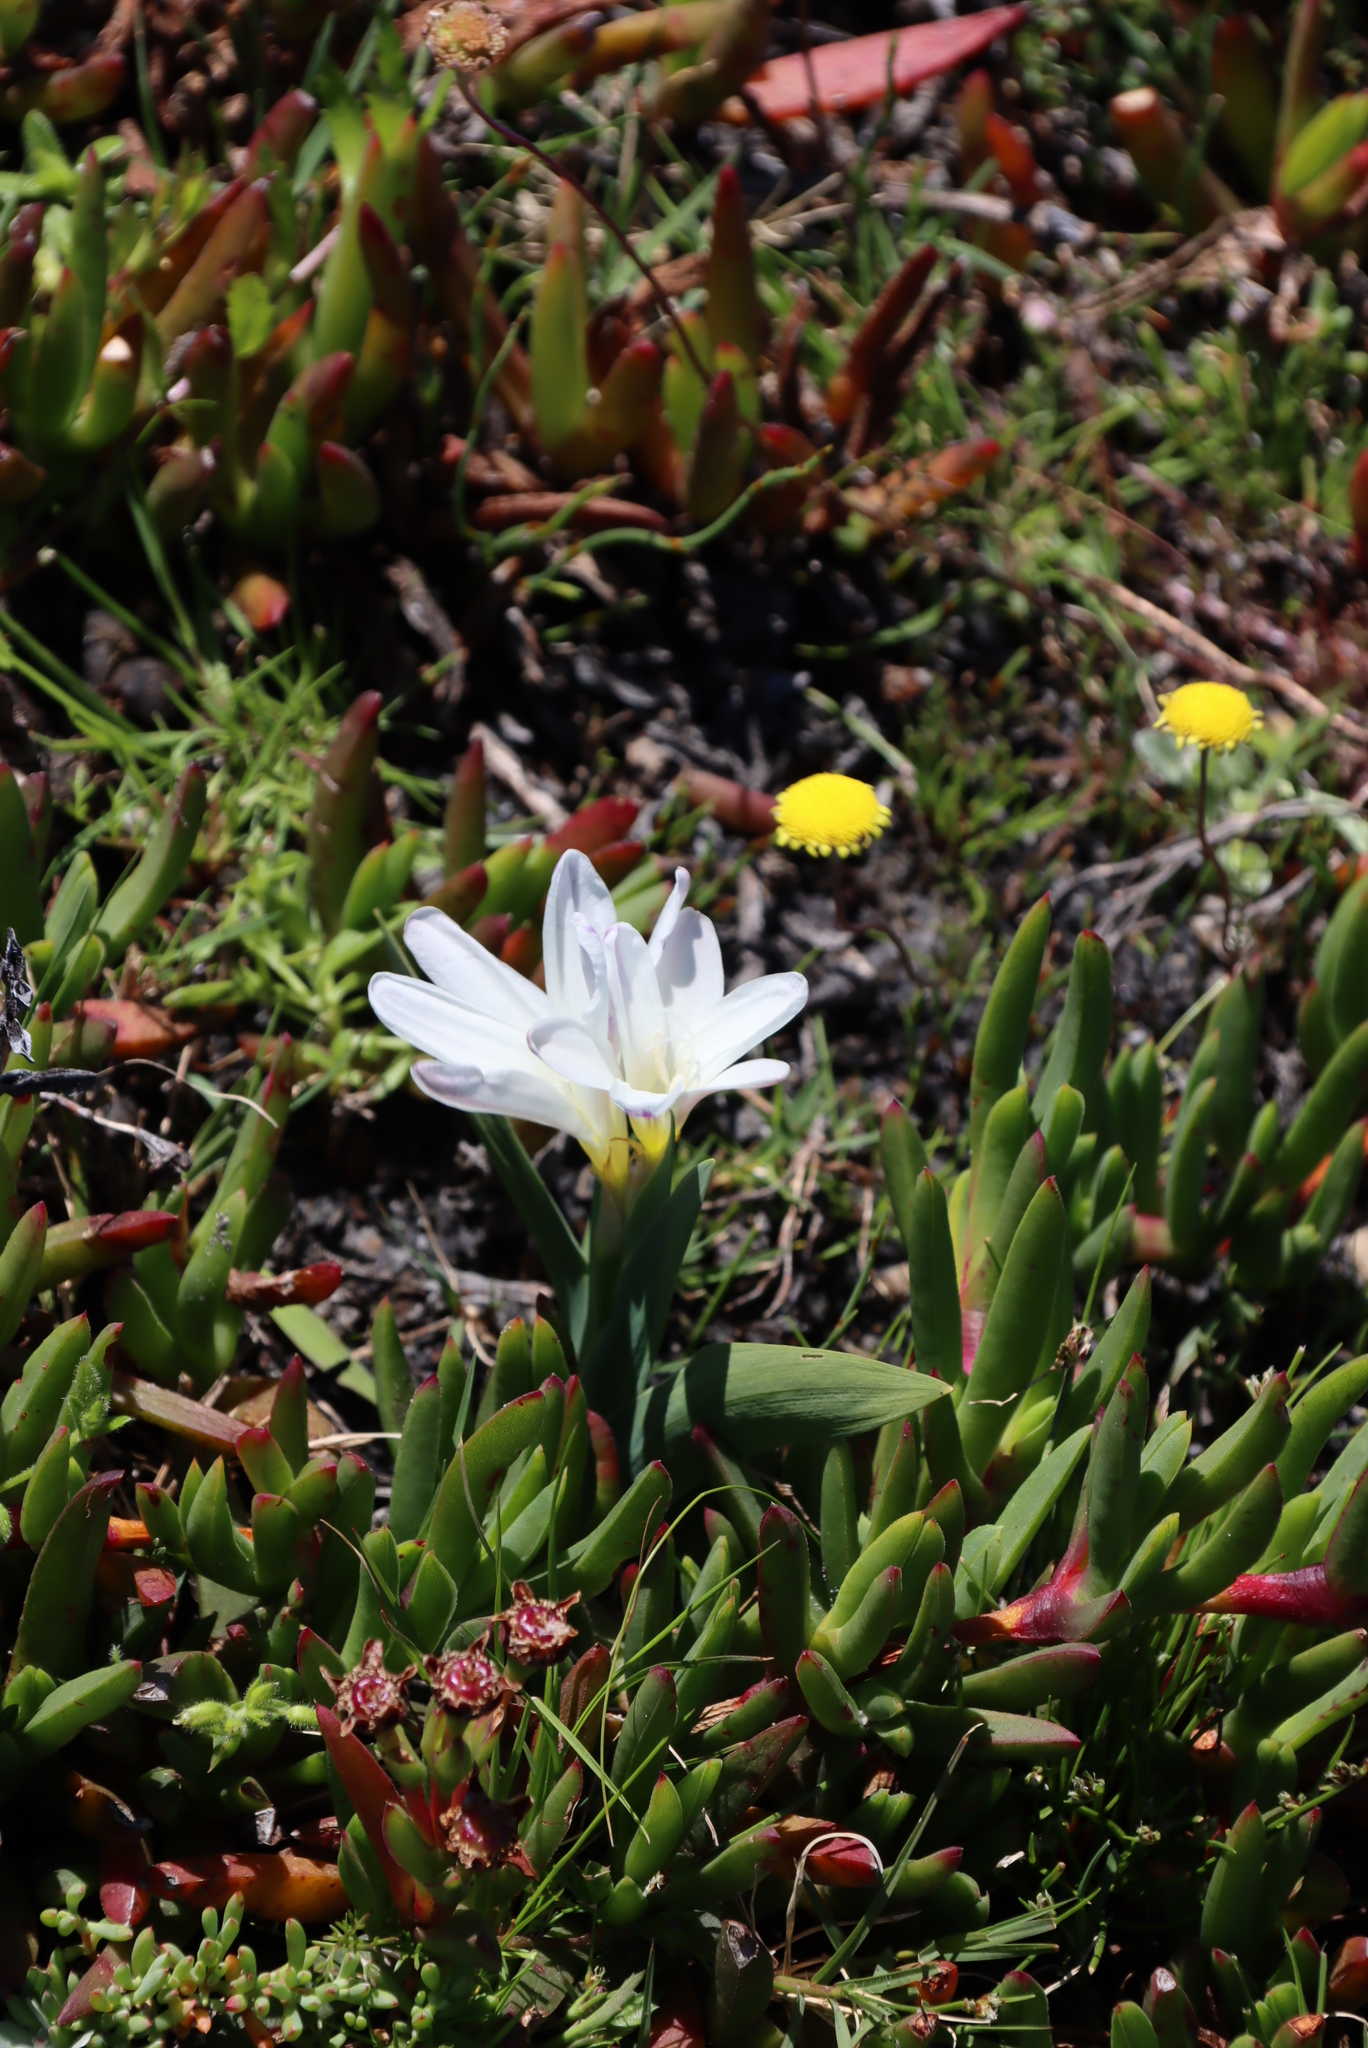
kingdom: Plantae
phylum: Tracheophyta
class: Liliopsida
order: Asparagales
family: Iridaceae
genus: Sparaxis
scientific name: Sparaxis bulbifera
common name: Harlequin-flower
